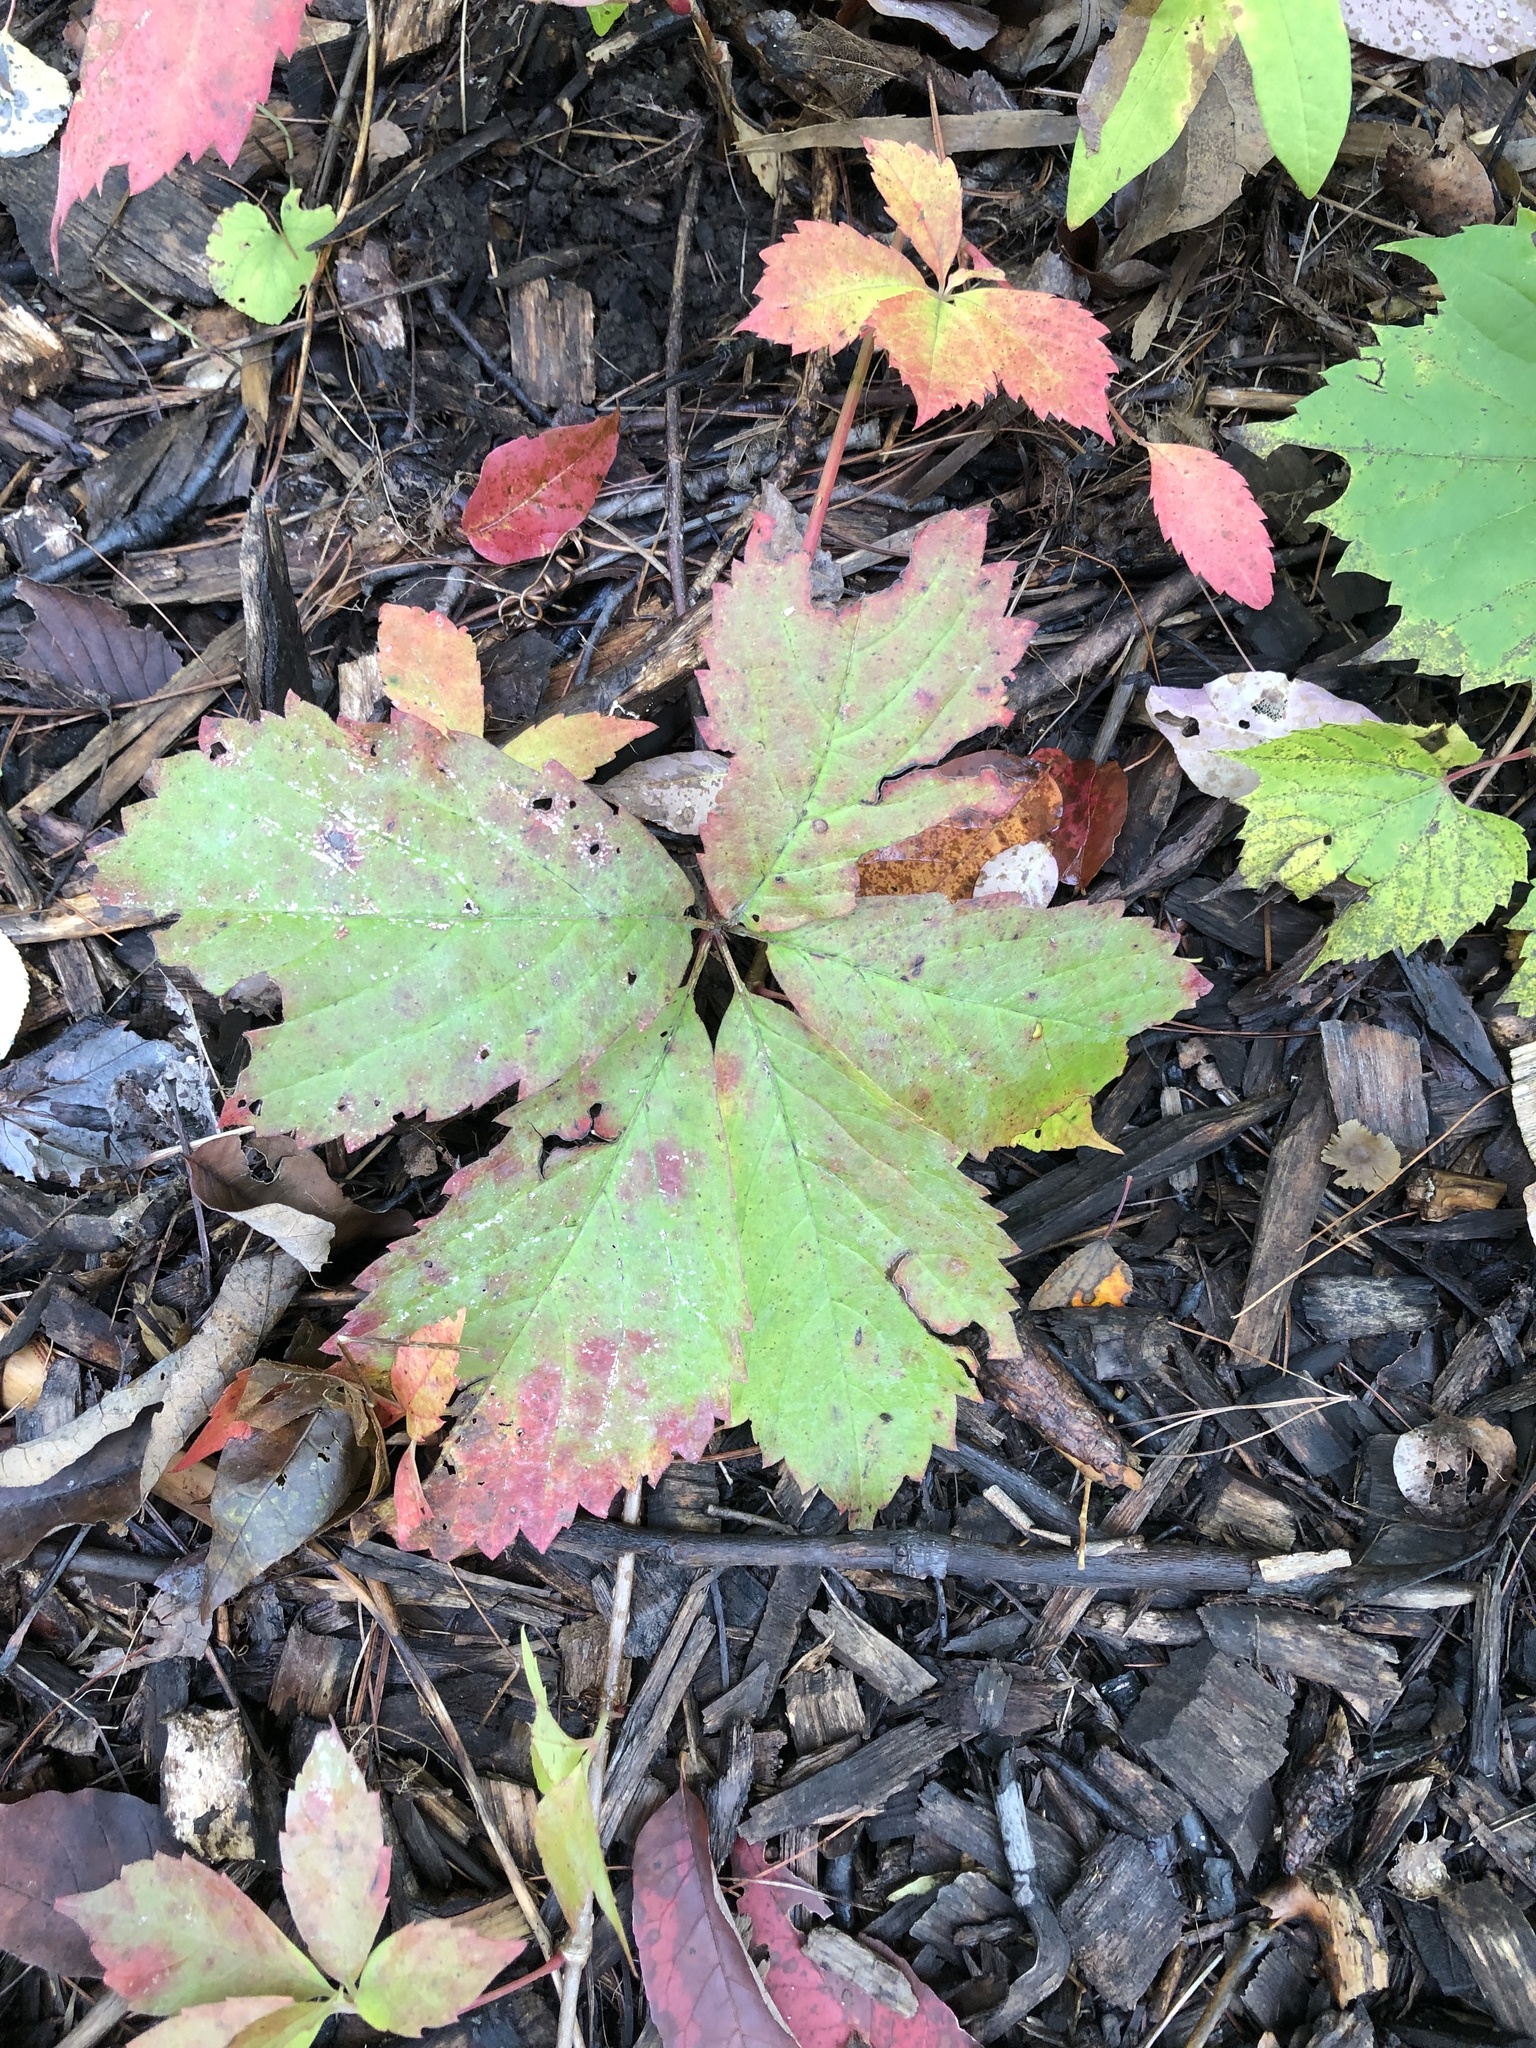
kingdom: Plantae
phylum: Tracheophyta
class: Magnoliopsida
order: Vitales
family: Vitaceae
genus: Parthenocissus
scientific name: Parthenocissus inserta
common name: False virginia-creeper
